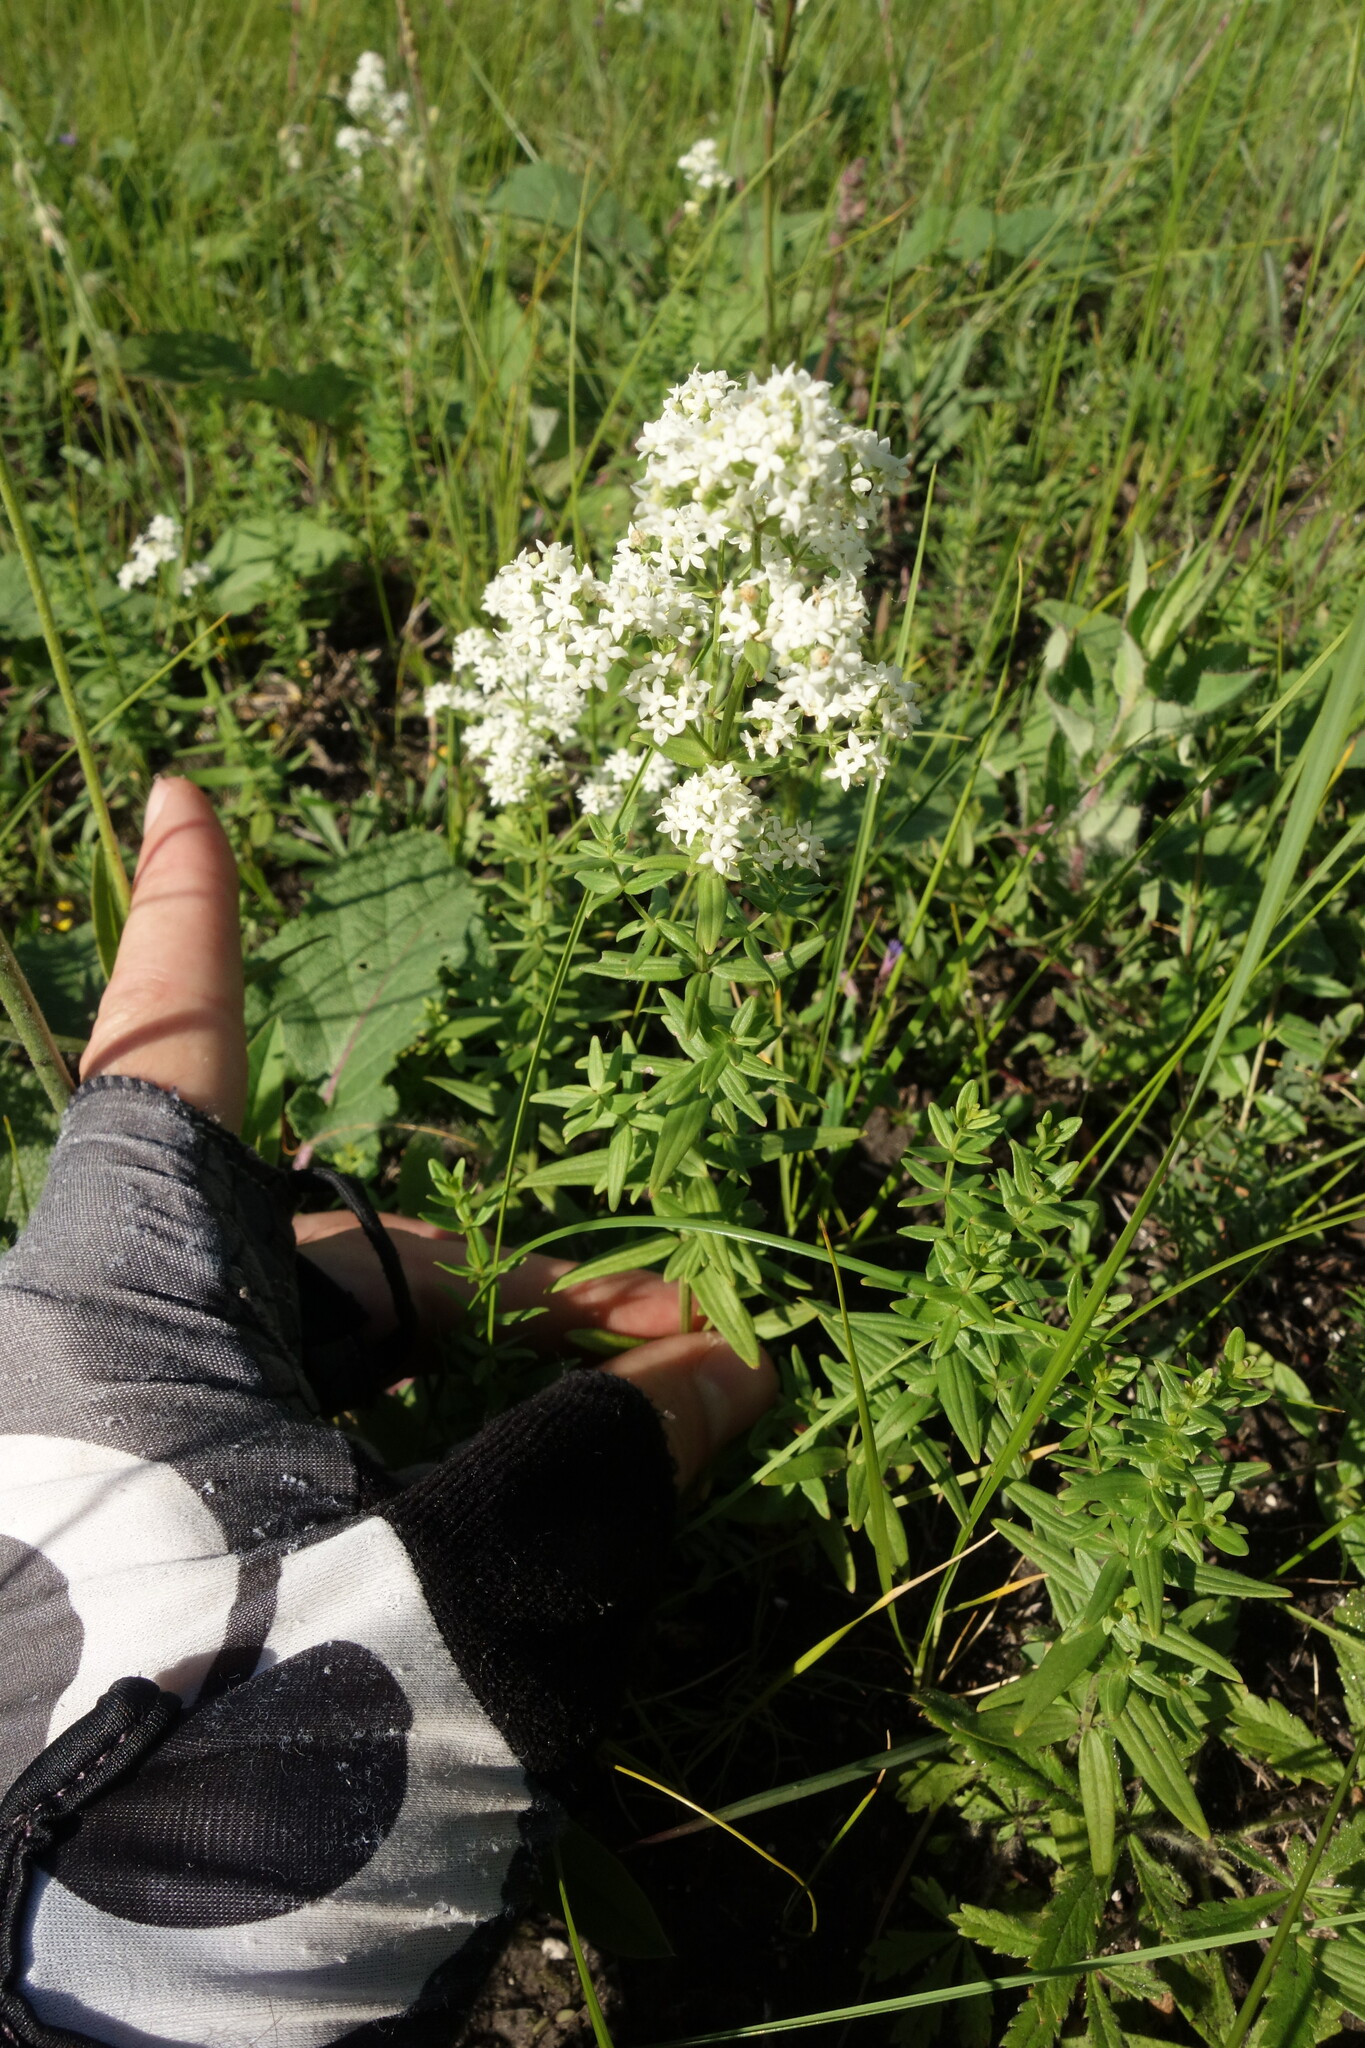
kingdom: Plantae
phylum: Tracheophyta
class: Magnoliopsida
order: Gentianales
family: Rubiaceae
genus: Galium
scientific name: Galium boreale
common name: Northern bedstraw
